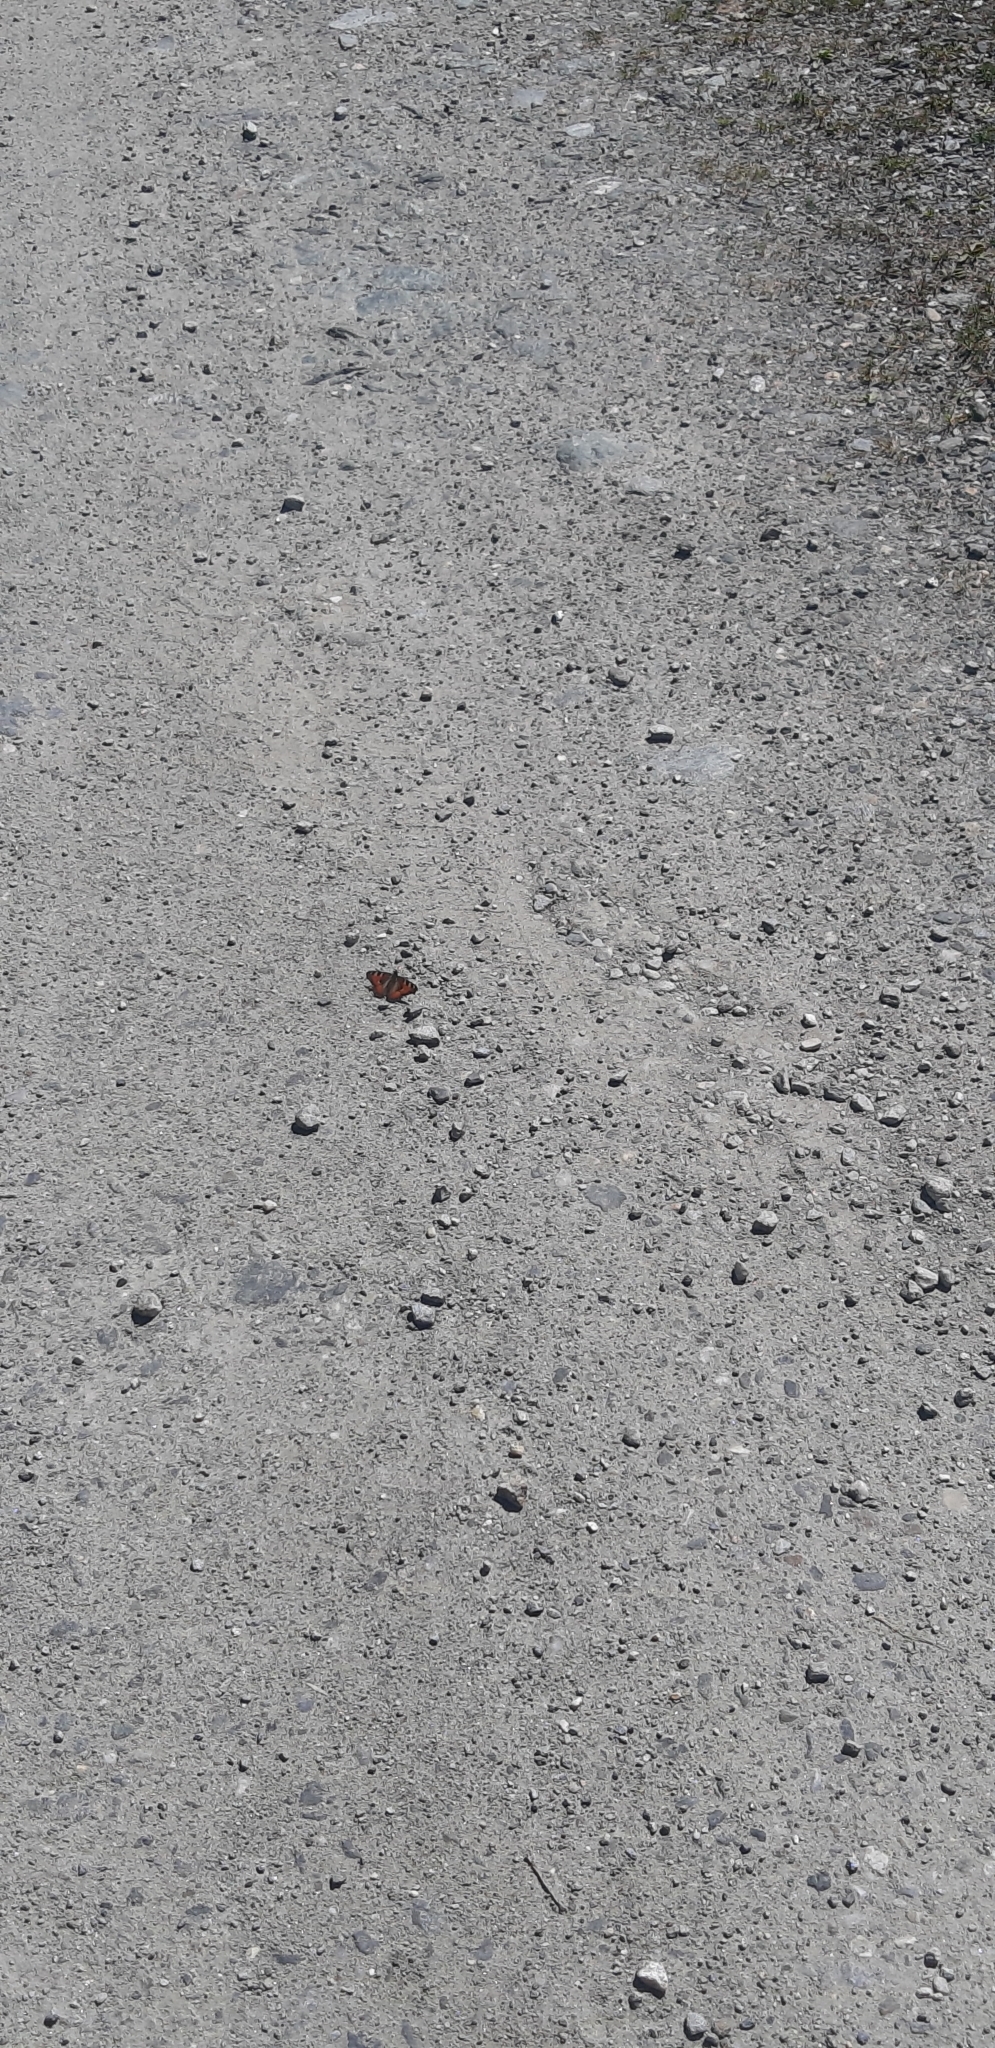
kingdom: Animalia
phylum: Arthropoda
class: Insecta
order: Lepidoptera
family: Nymphalidae
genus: Aglais
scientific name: Aglais urticae
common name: Small tortoiseshell
